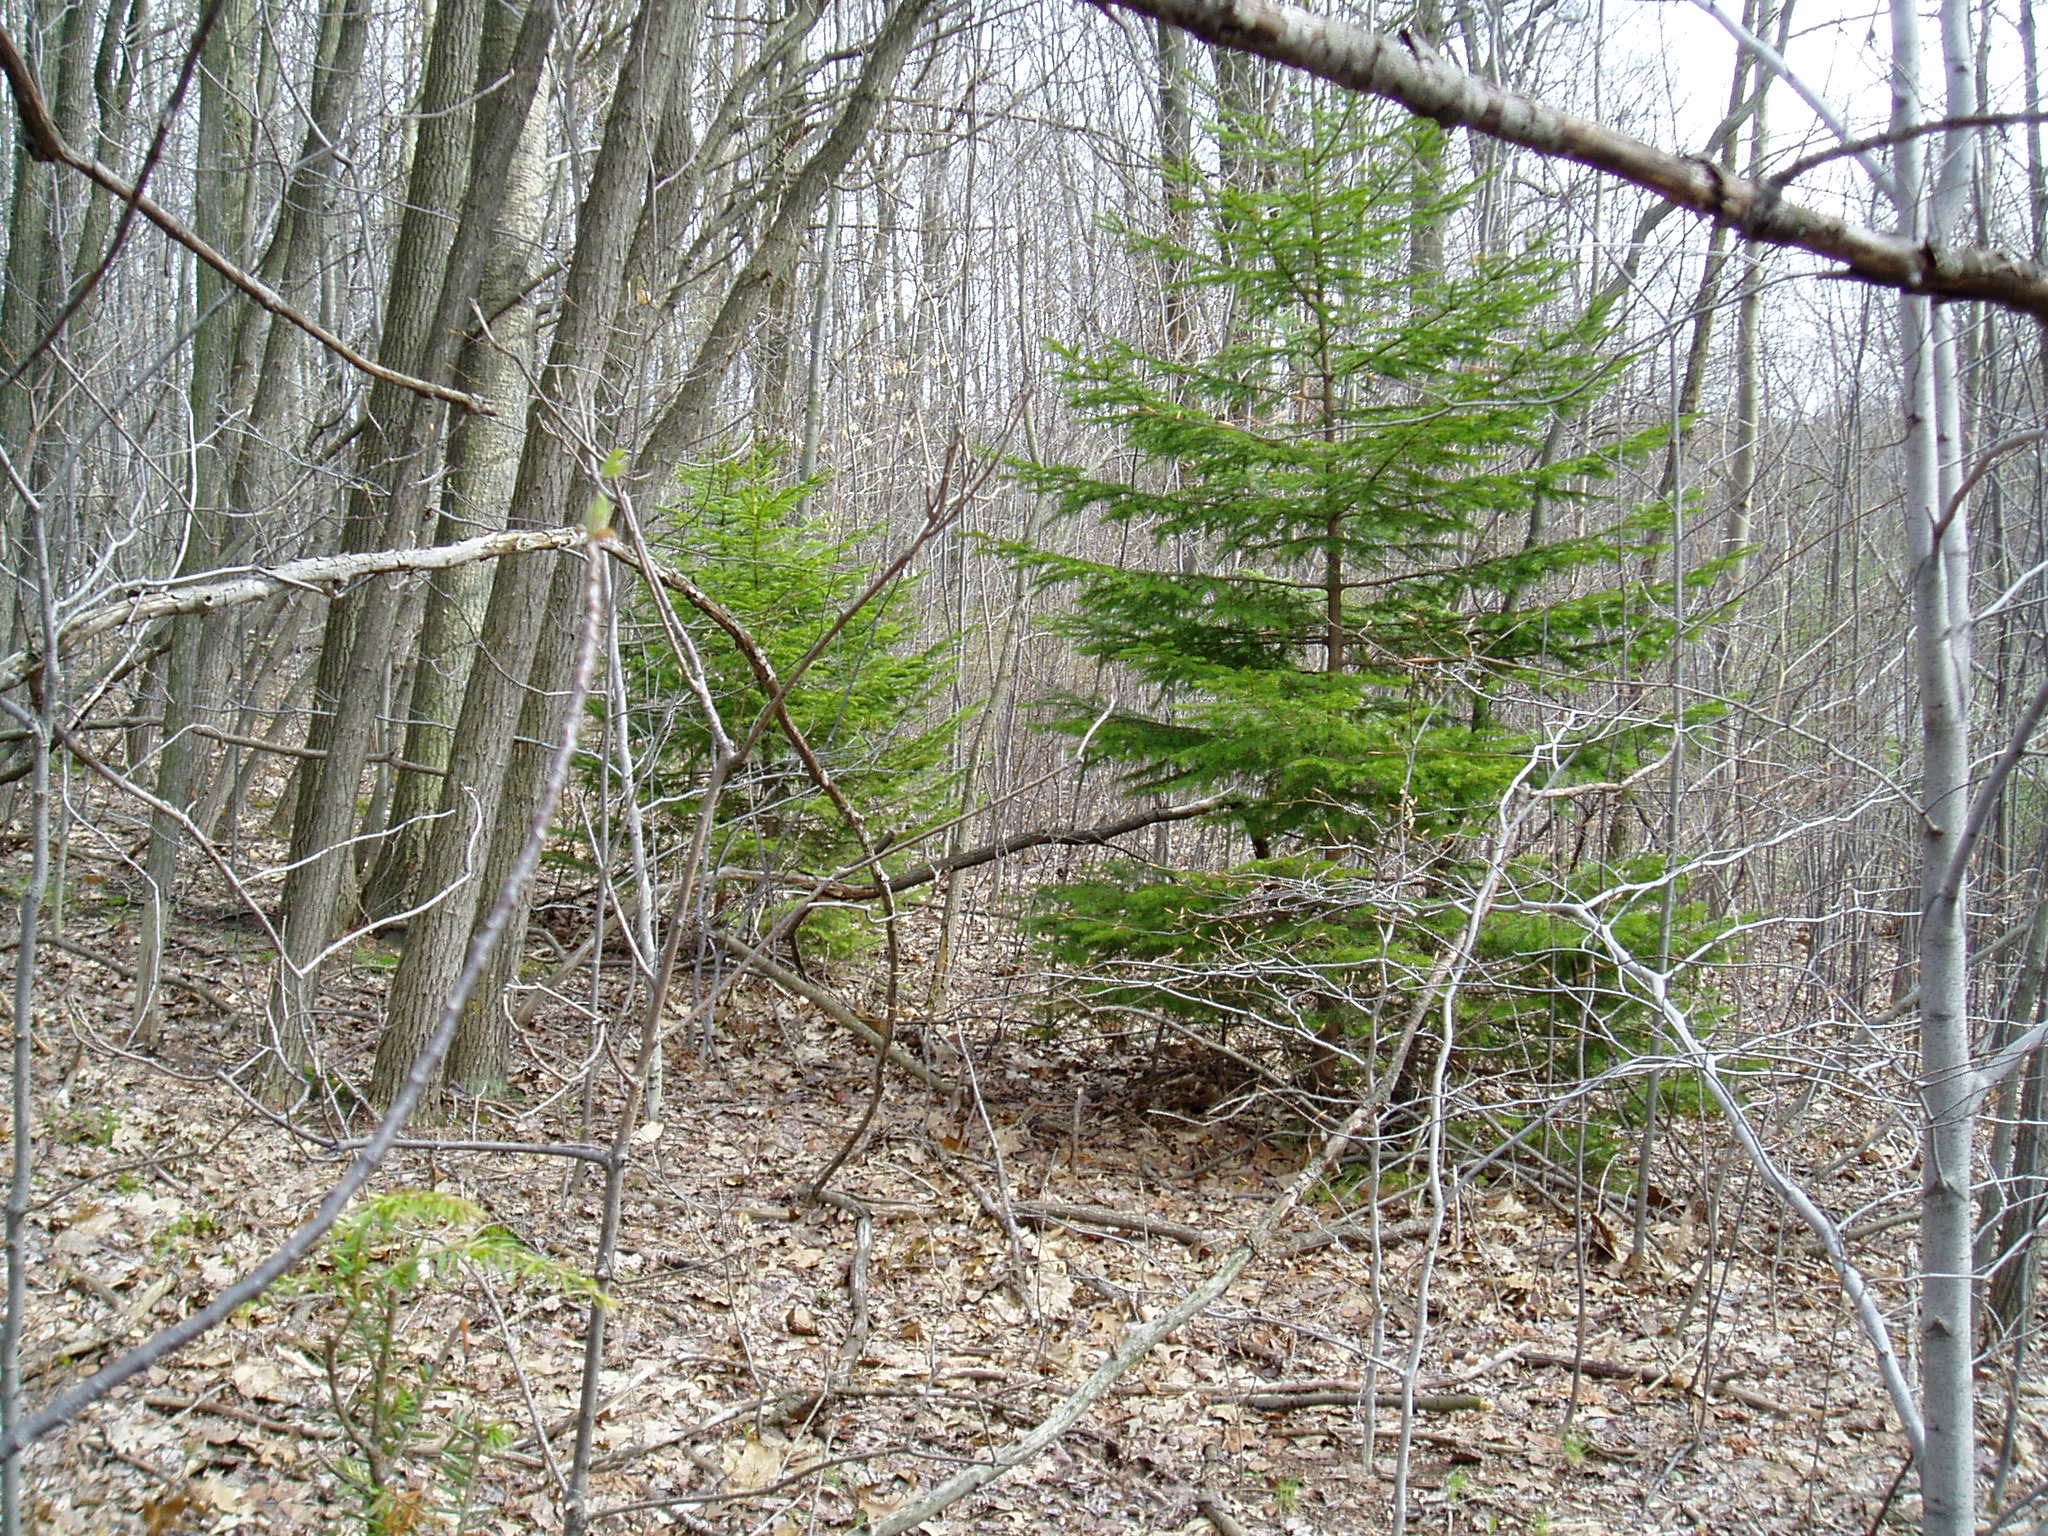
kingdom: Plantae
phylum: Tracheophyta
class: Pinopsida
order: Pinales
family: Pinaceae
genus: Picea
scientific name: Picea abies
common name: Norway spruce
